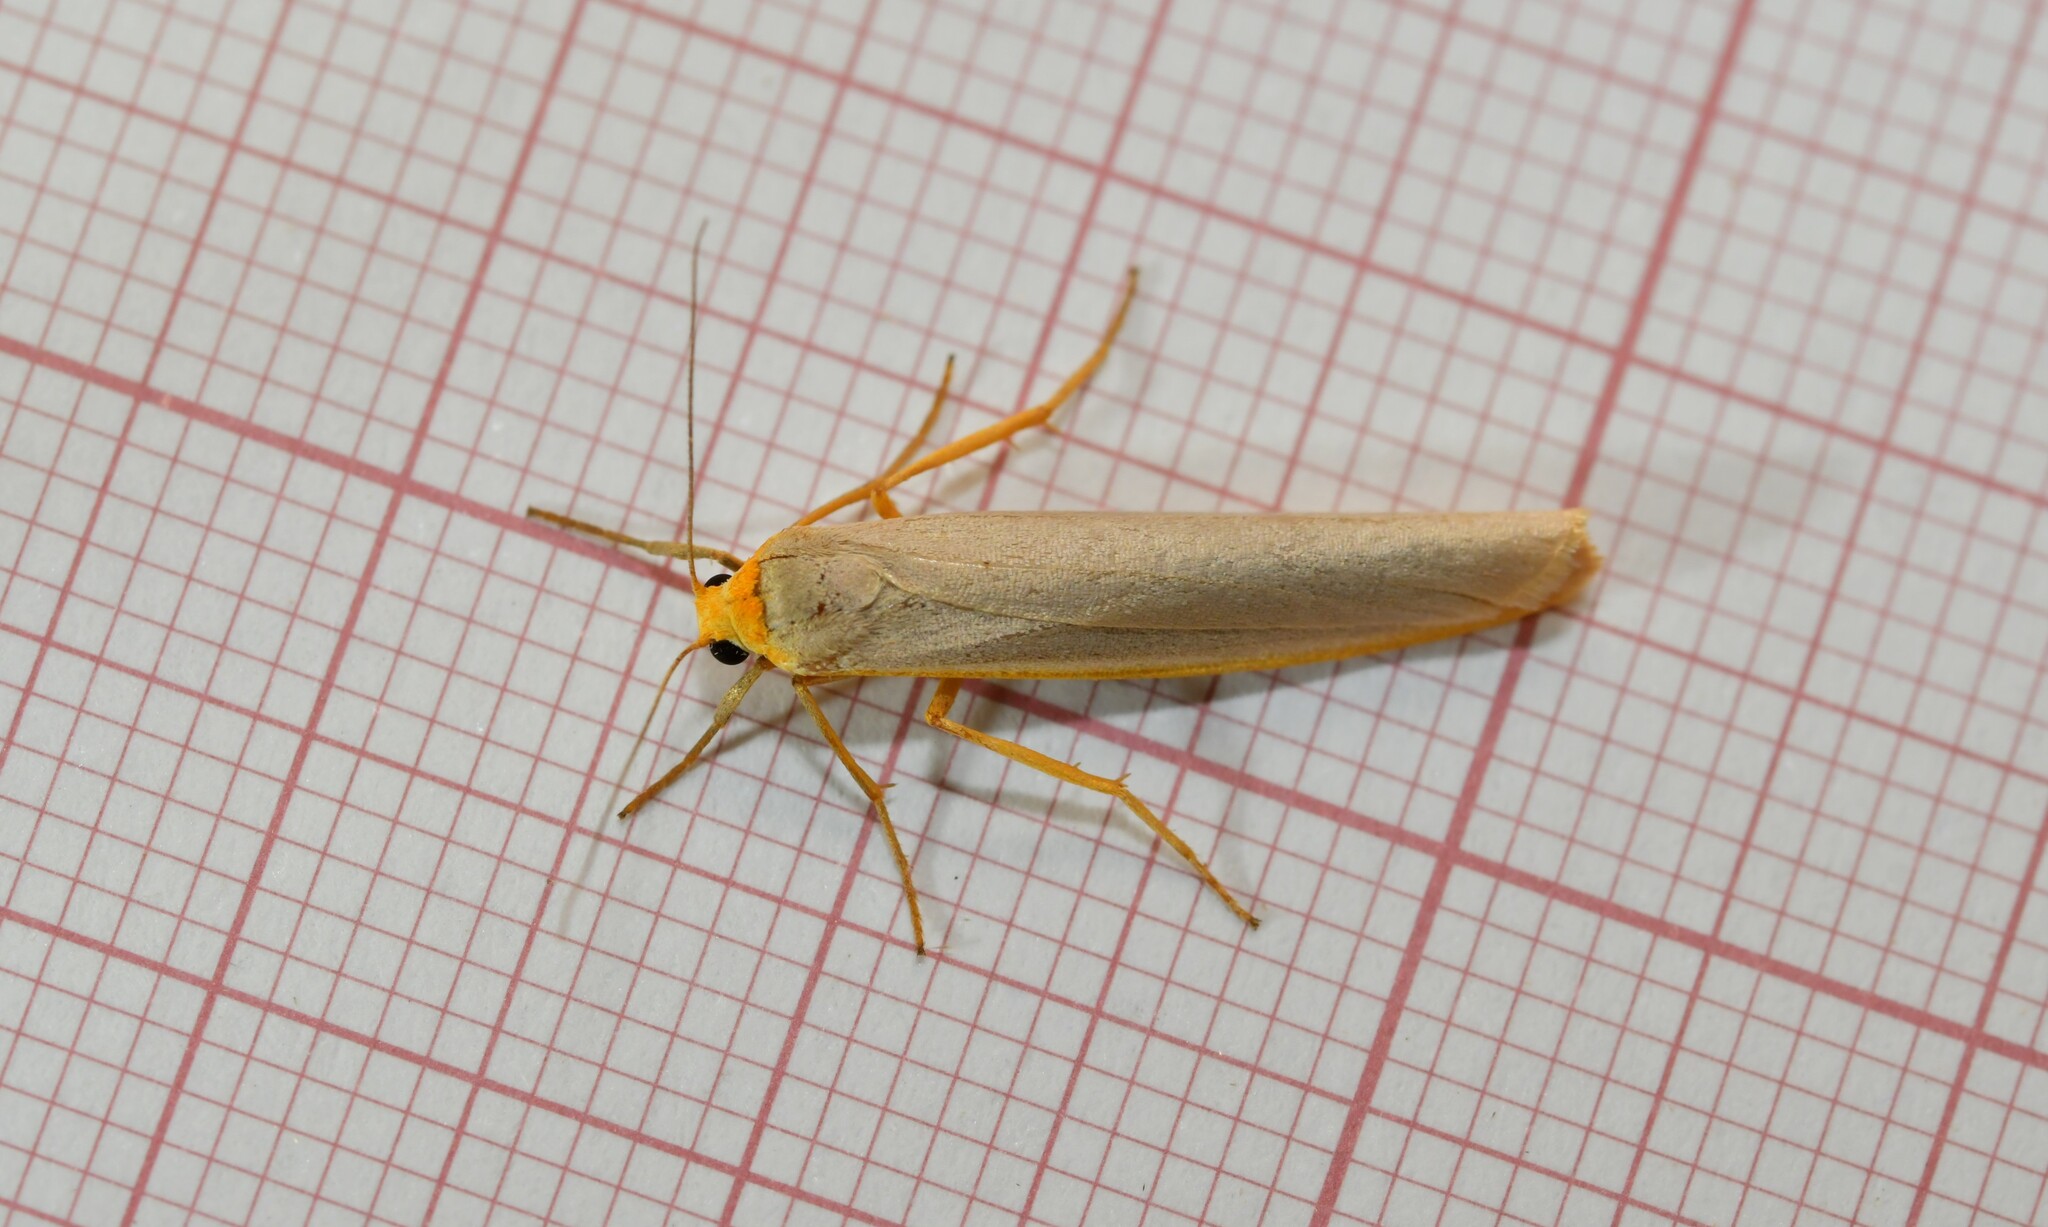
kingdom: Animalia
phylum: Arthropoda
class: Insecta
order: Lepidoptera
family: Erebidae
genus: Eilema
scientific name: Eilema caniola
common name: Hoary footman
